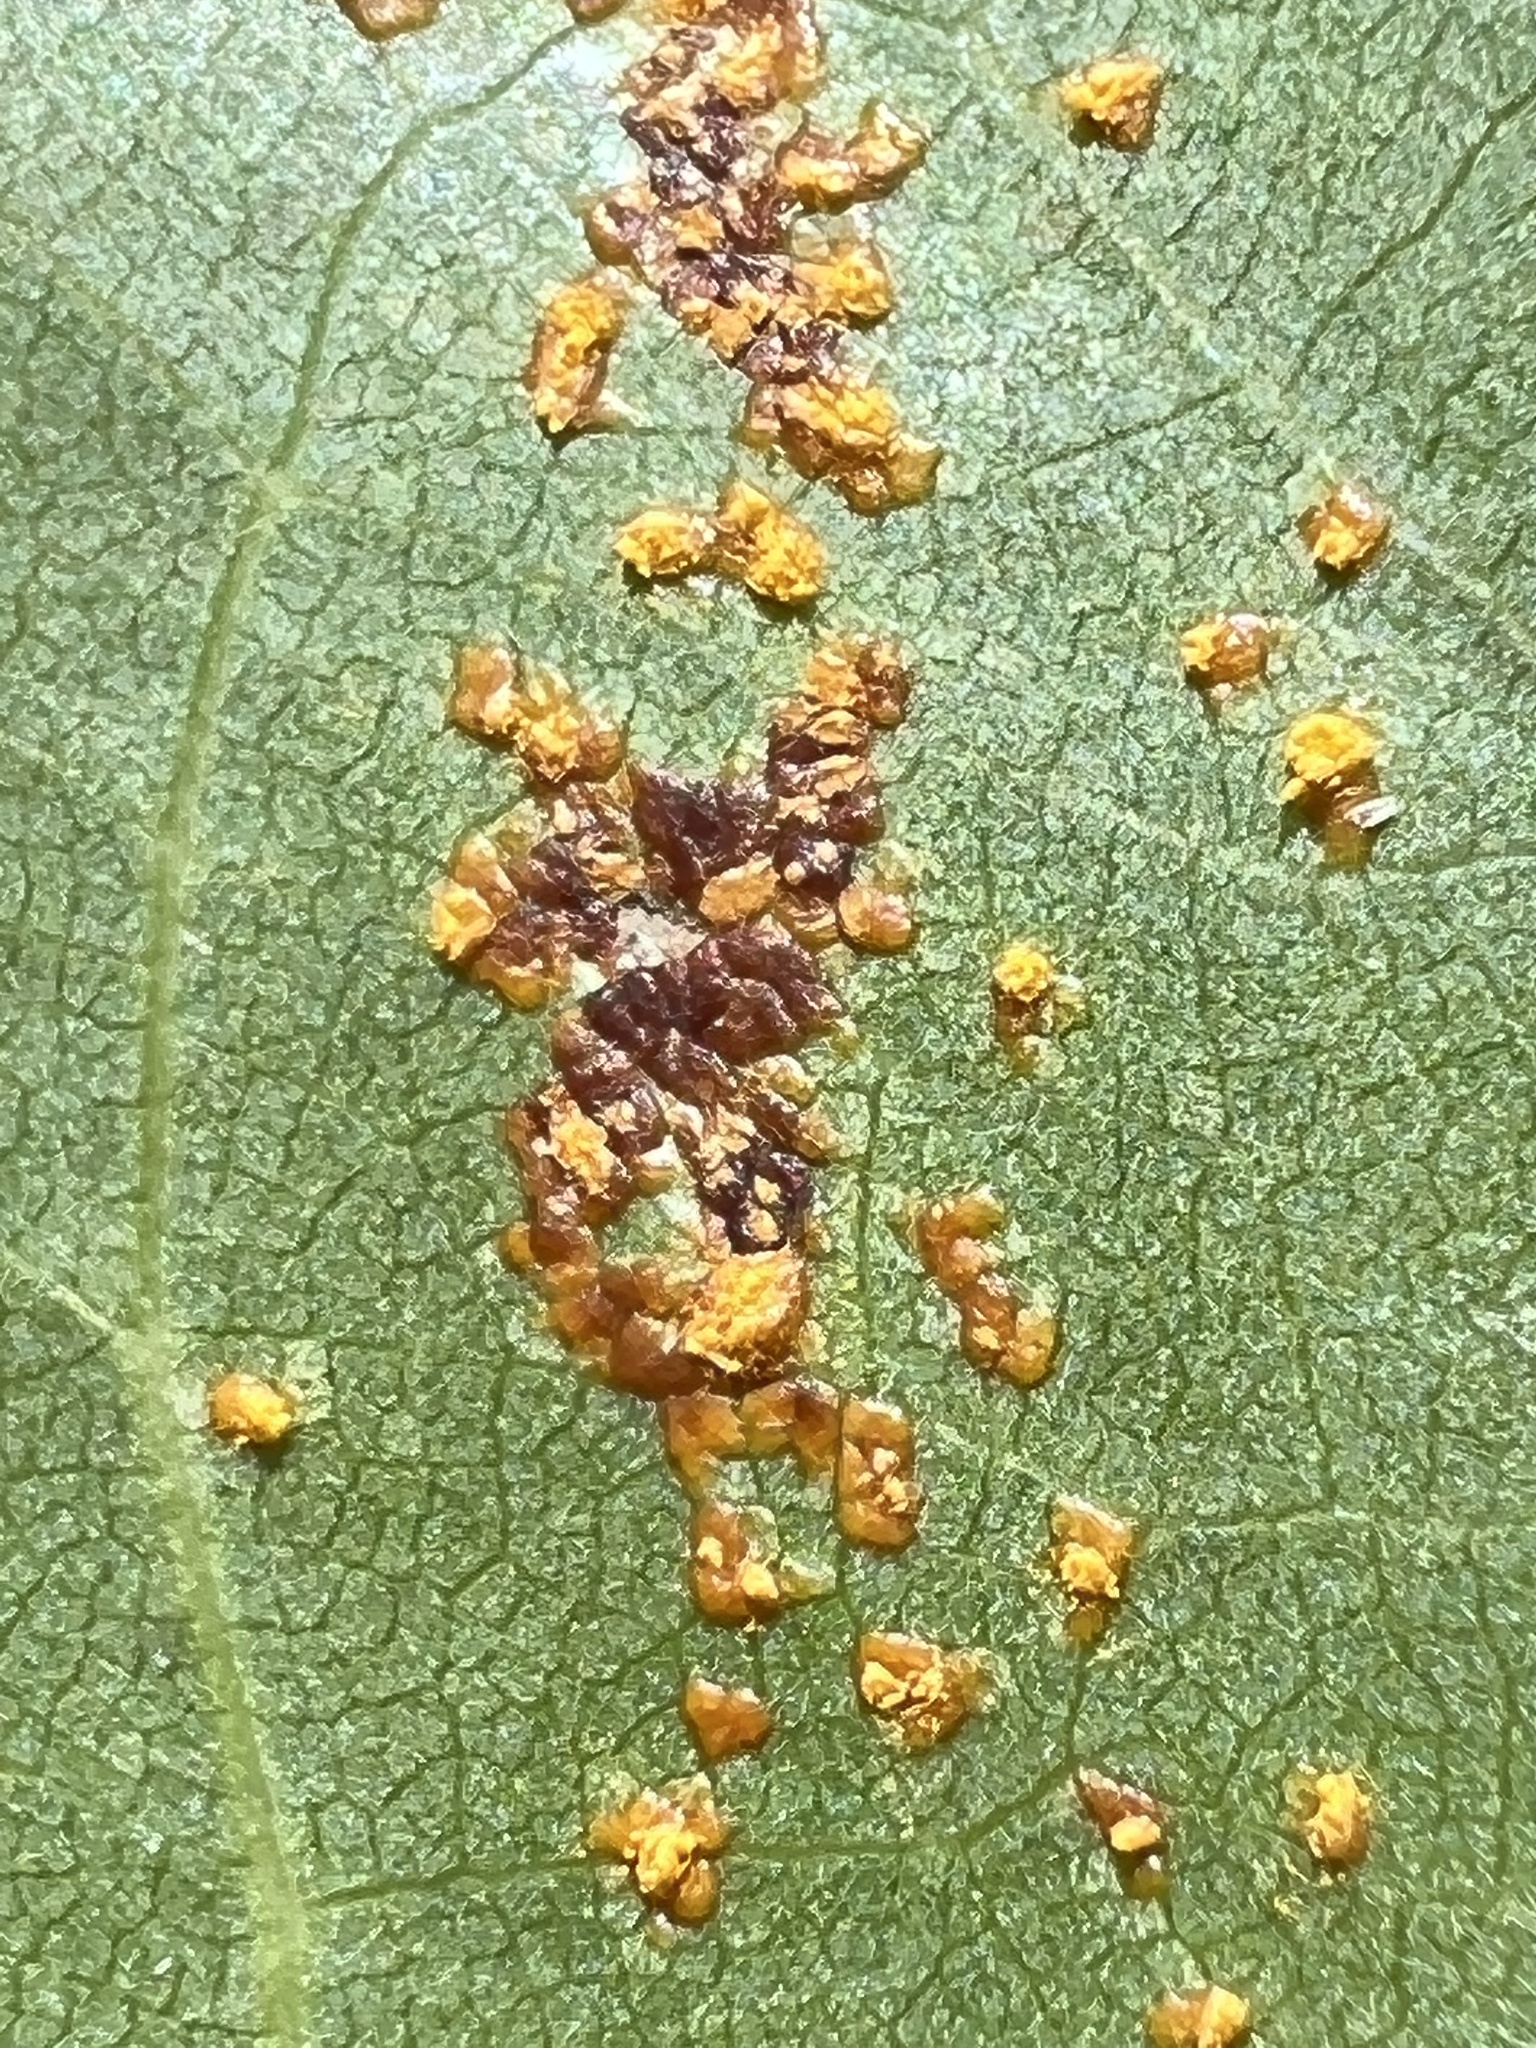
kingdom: Fungi
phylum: Basidiomycota
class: Pucciniomycetes
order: Pucciniales
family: Melampsoraceae
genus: Melampsora
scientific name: Melampsora medusae
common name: Poplar rust
